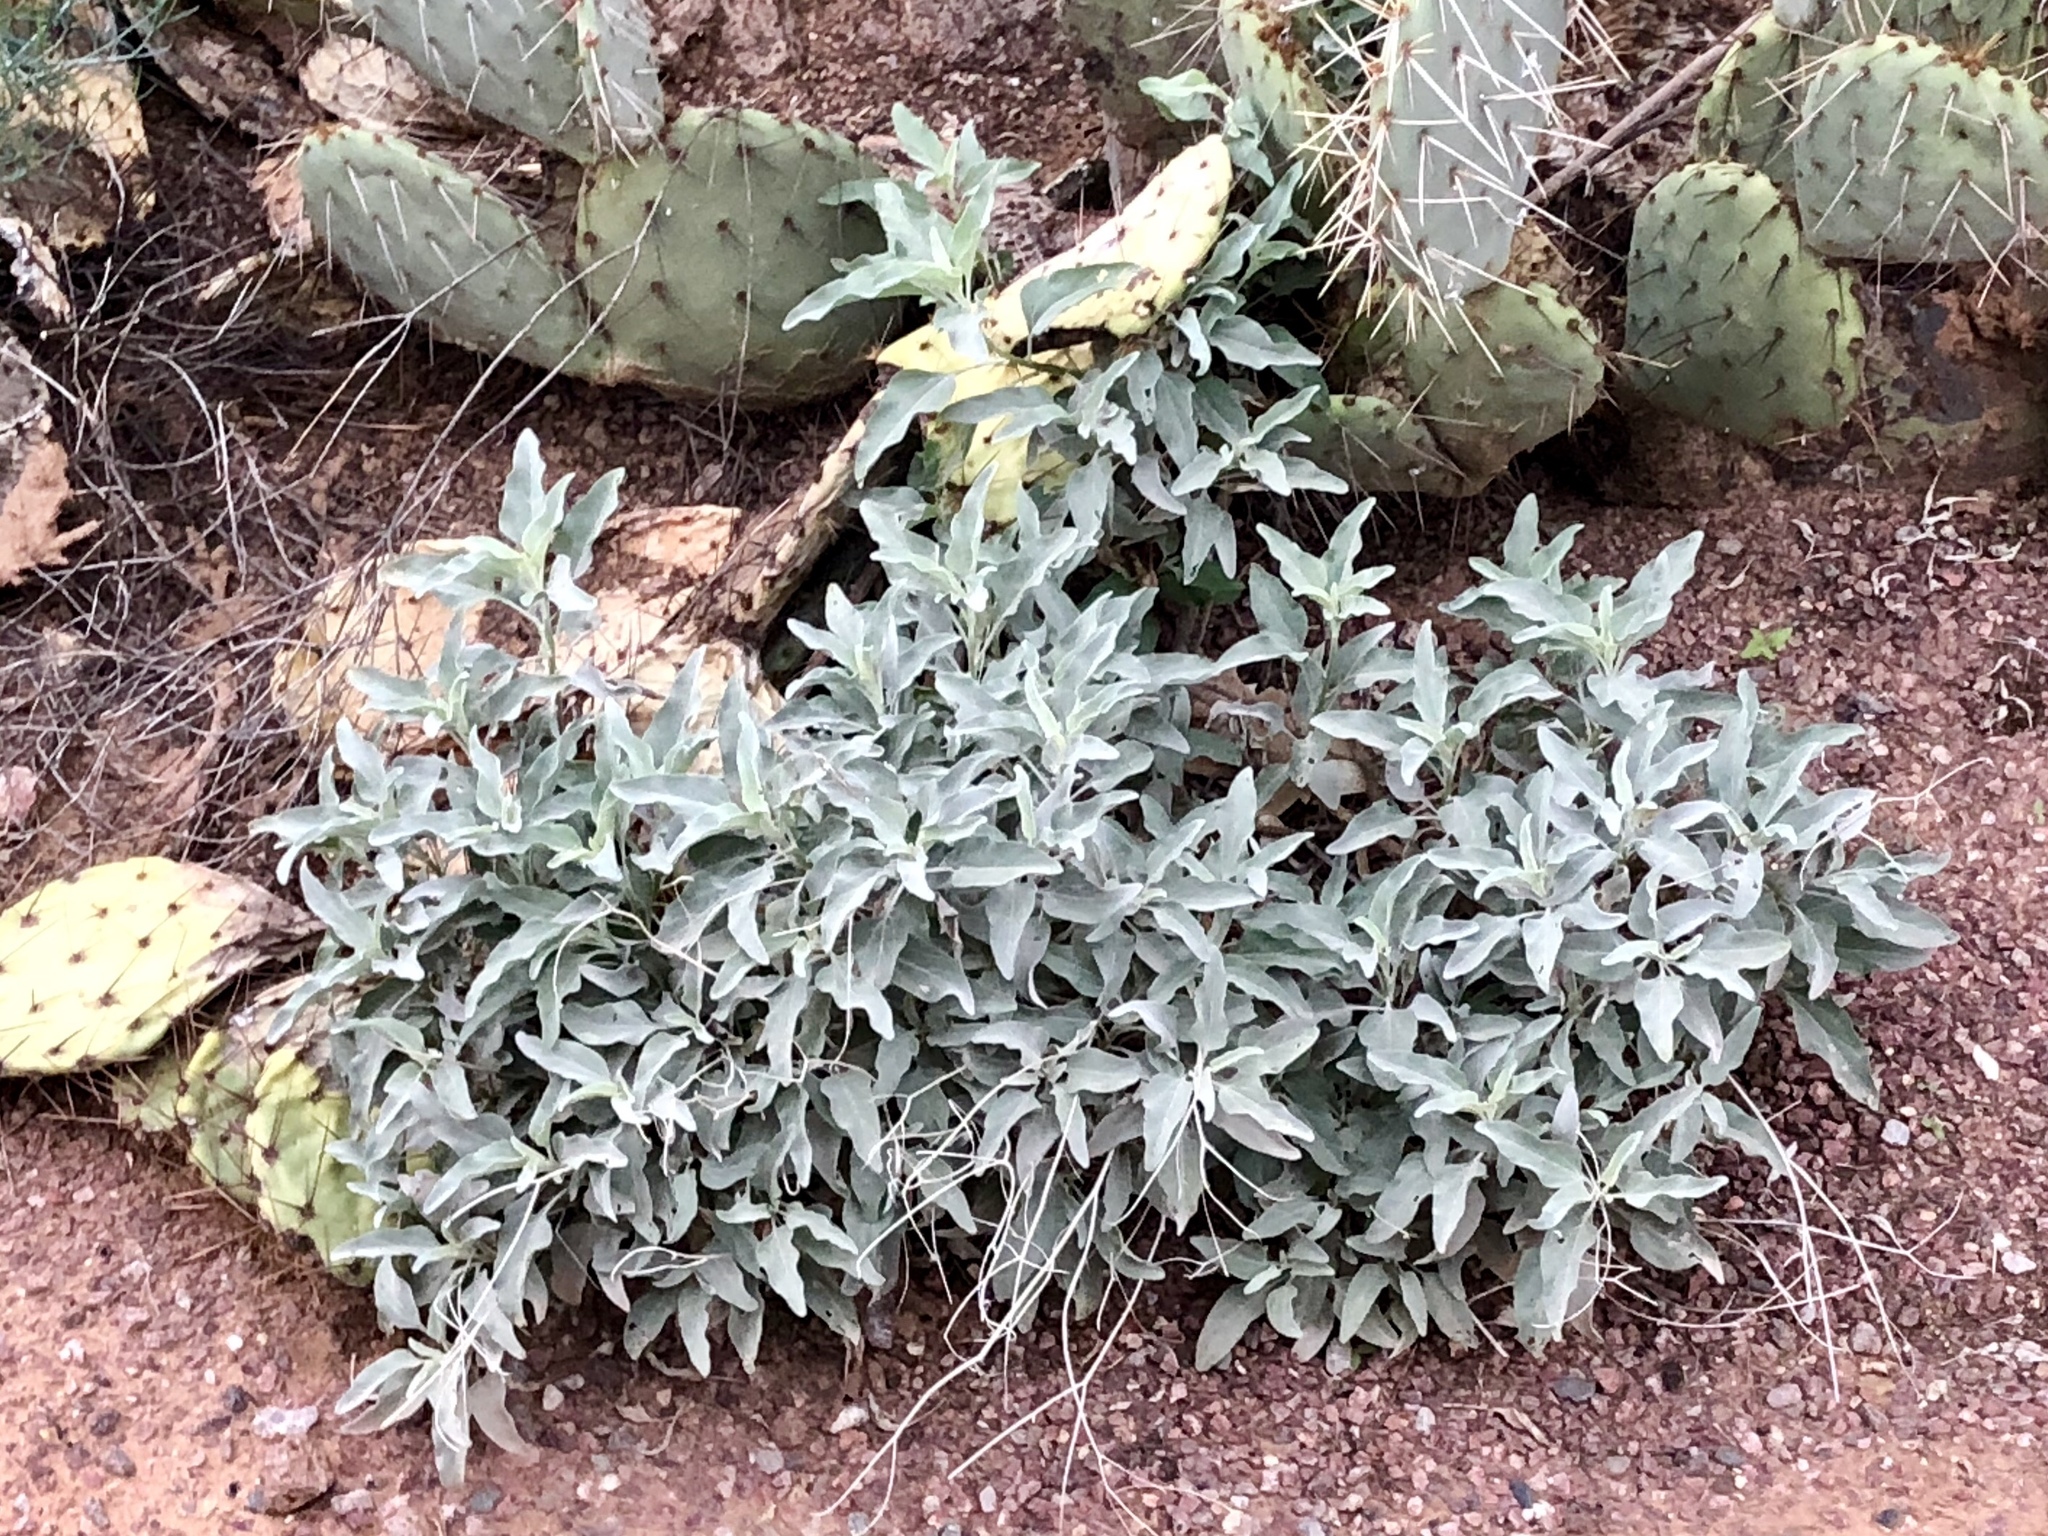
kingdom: Plantae
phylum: Tracheophyta
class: Magnoliopsida
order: Asterales
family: Asteraceae
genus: Encelia
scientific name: Encelia farinosa
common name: Brittlebush
